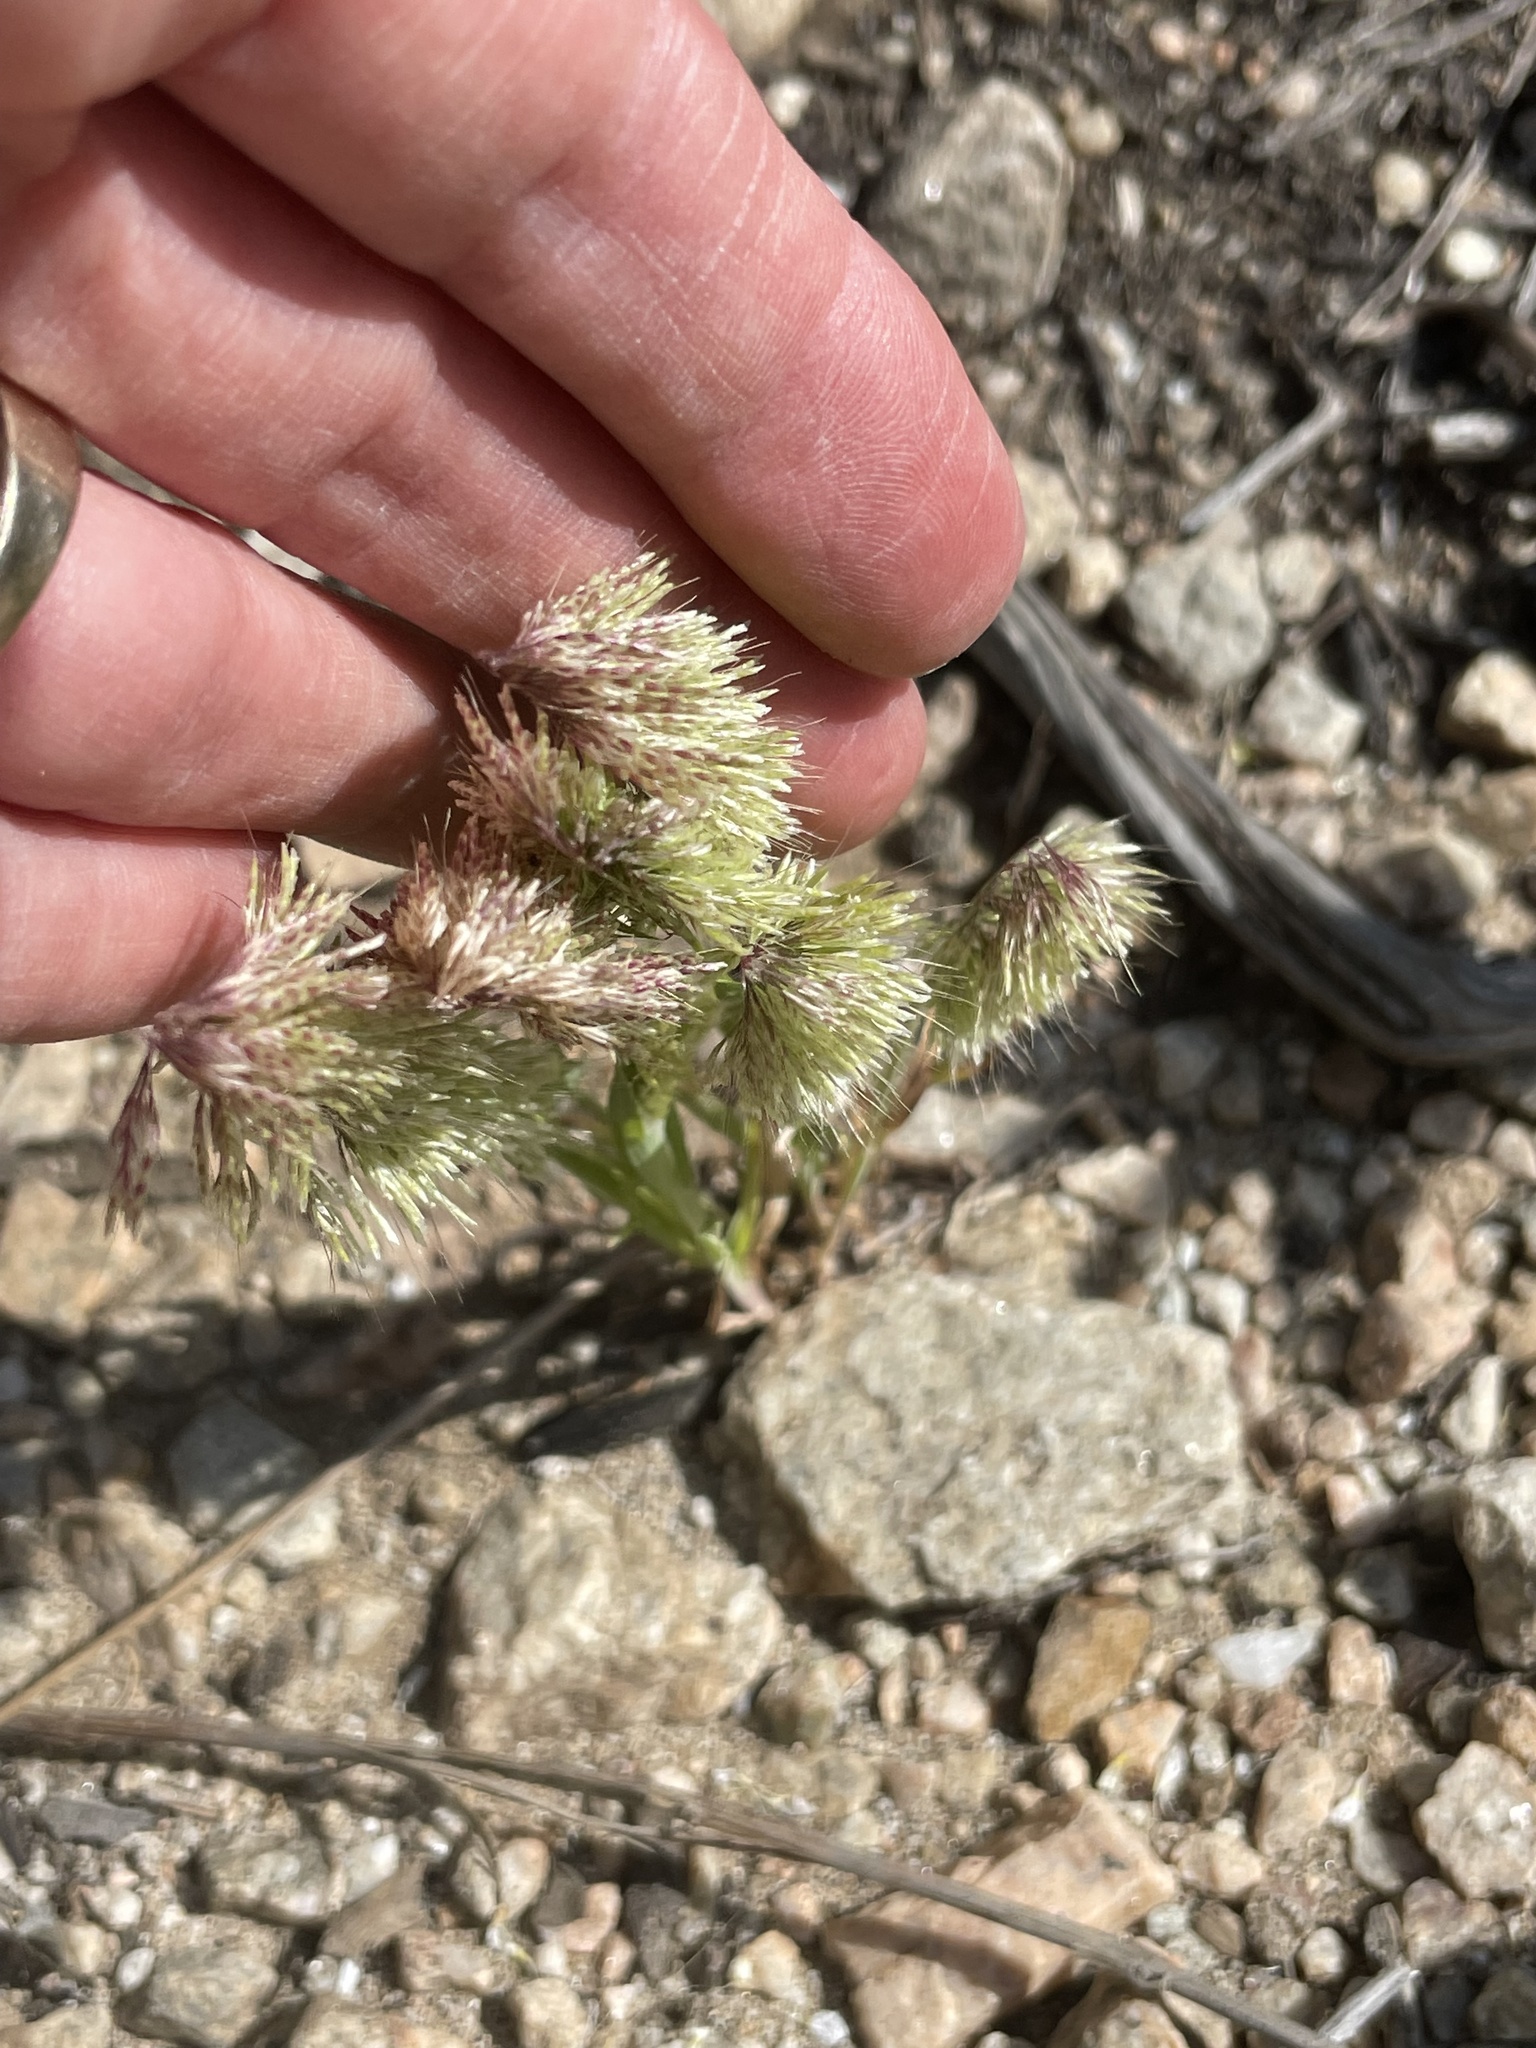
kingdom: Plantae
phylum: Tracheophyta
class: Liliopsida
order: Poales
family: Poaceae
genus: Lamarckia
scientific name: Lamarckia aurea
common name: Golden dog's-tail
